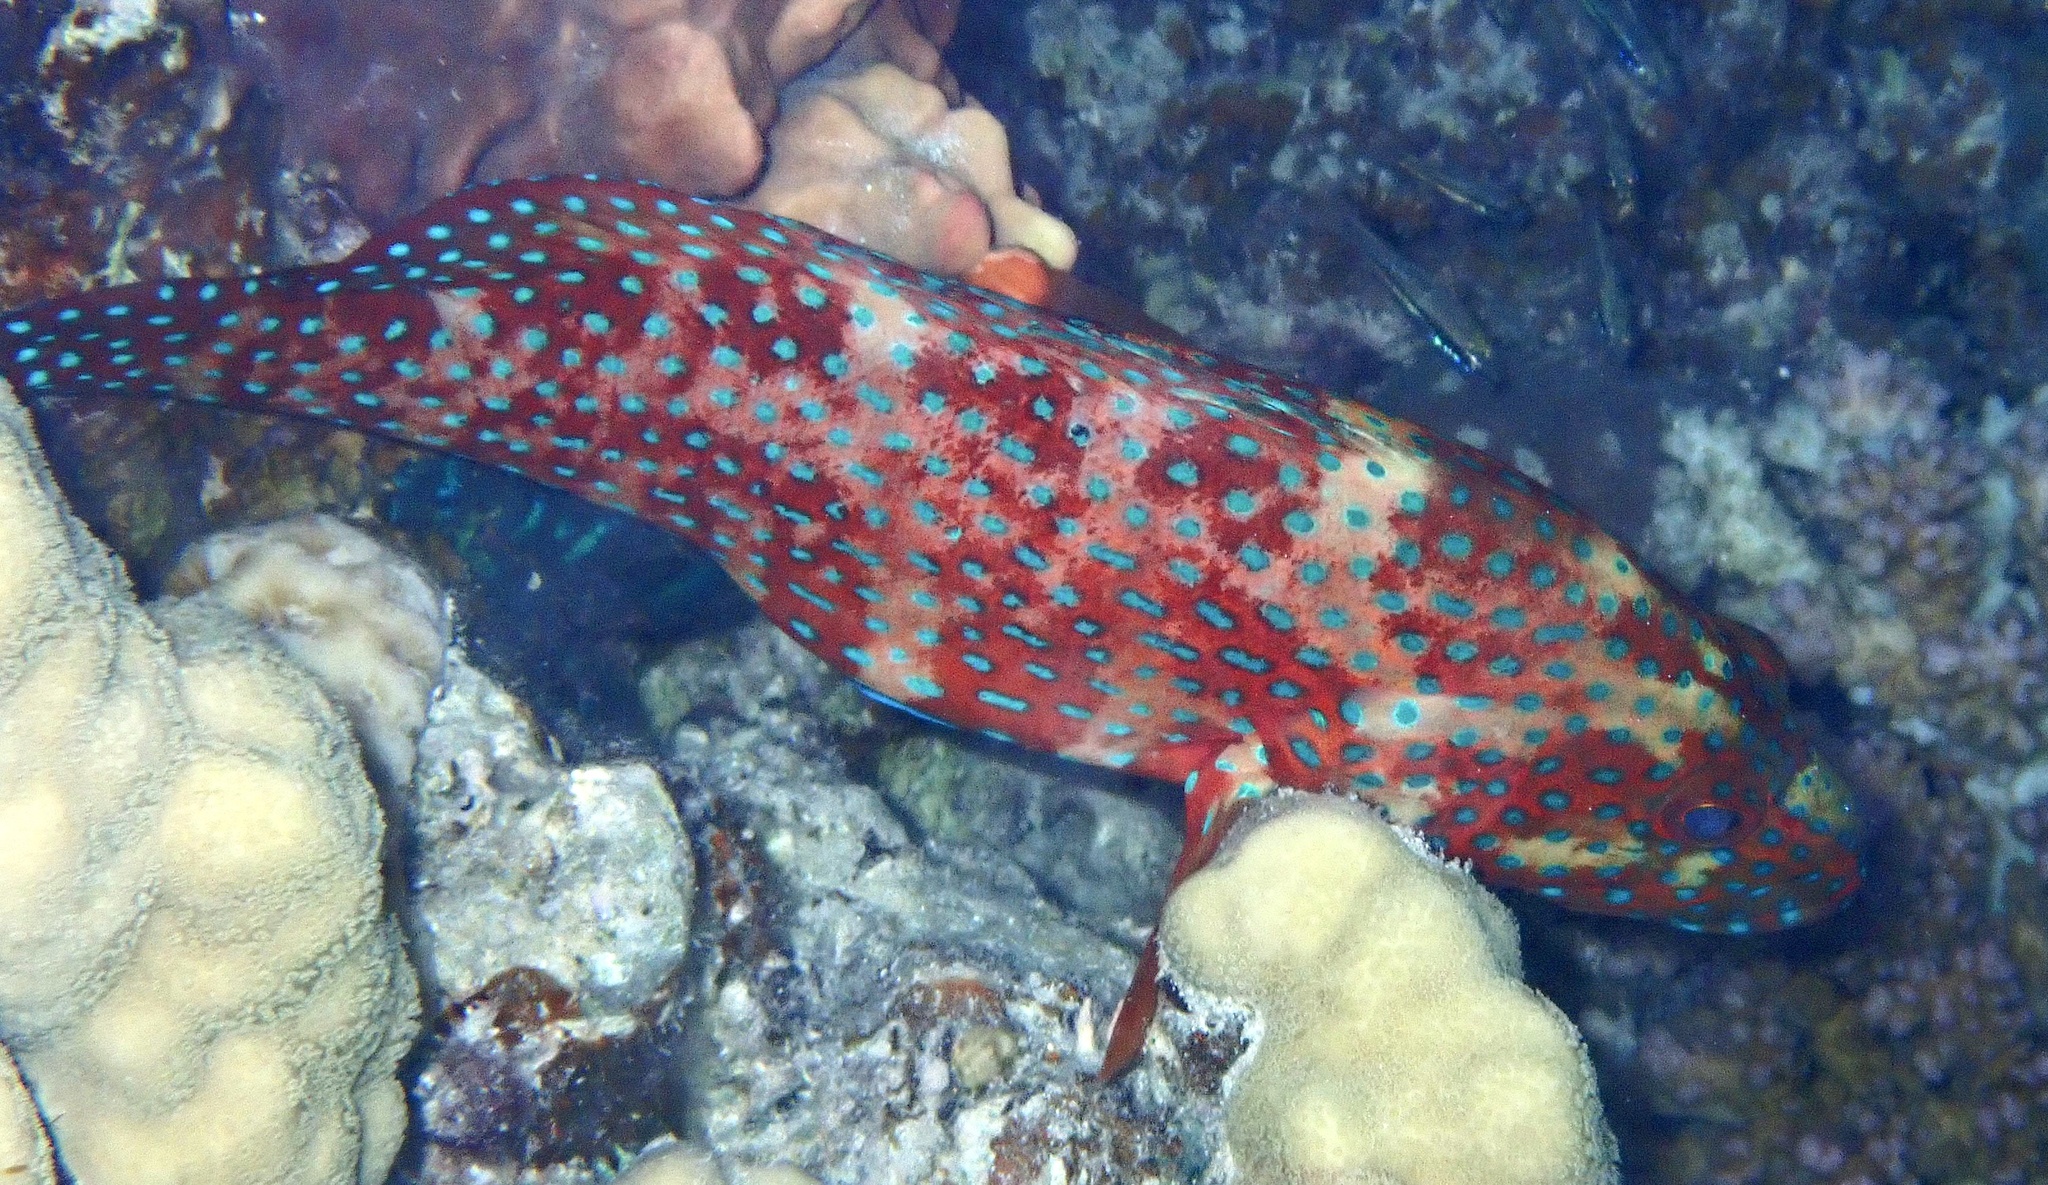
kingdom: Animalia
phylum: Chordata
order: Perciformes
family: Serranidae
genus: Cephalopholis
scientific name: Cephalopholis miniata
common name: Coral hind
